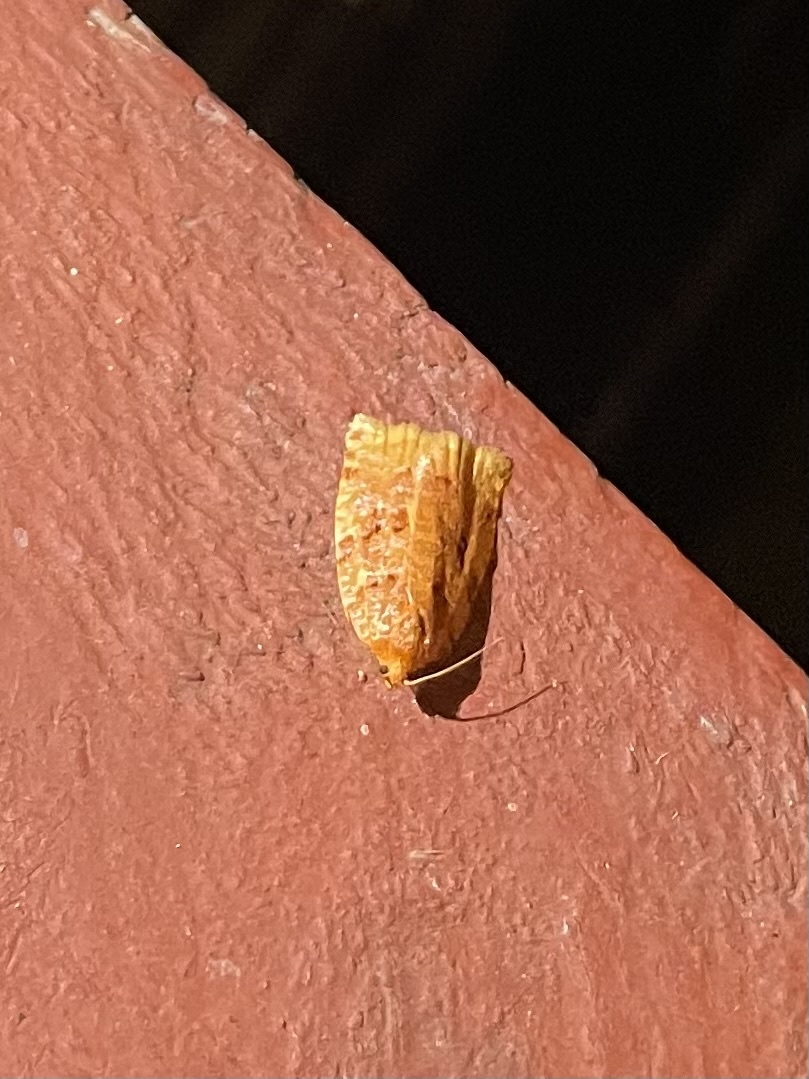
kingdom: Animalia
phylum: Arthropoda
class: Insecta
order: Lepidoptera
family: Tortricidae
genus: Archips
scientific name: Archips cerasivorana
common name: Uglynest caterpillar
